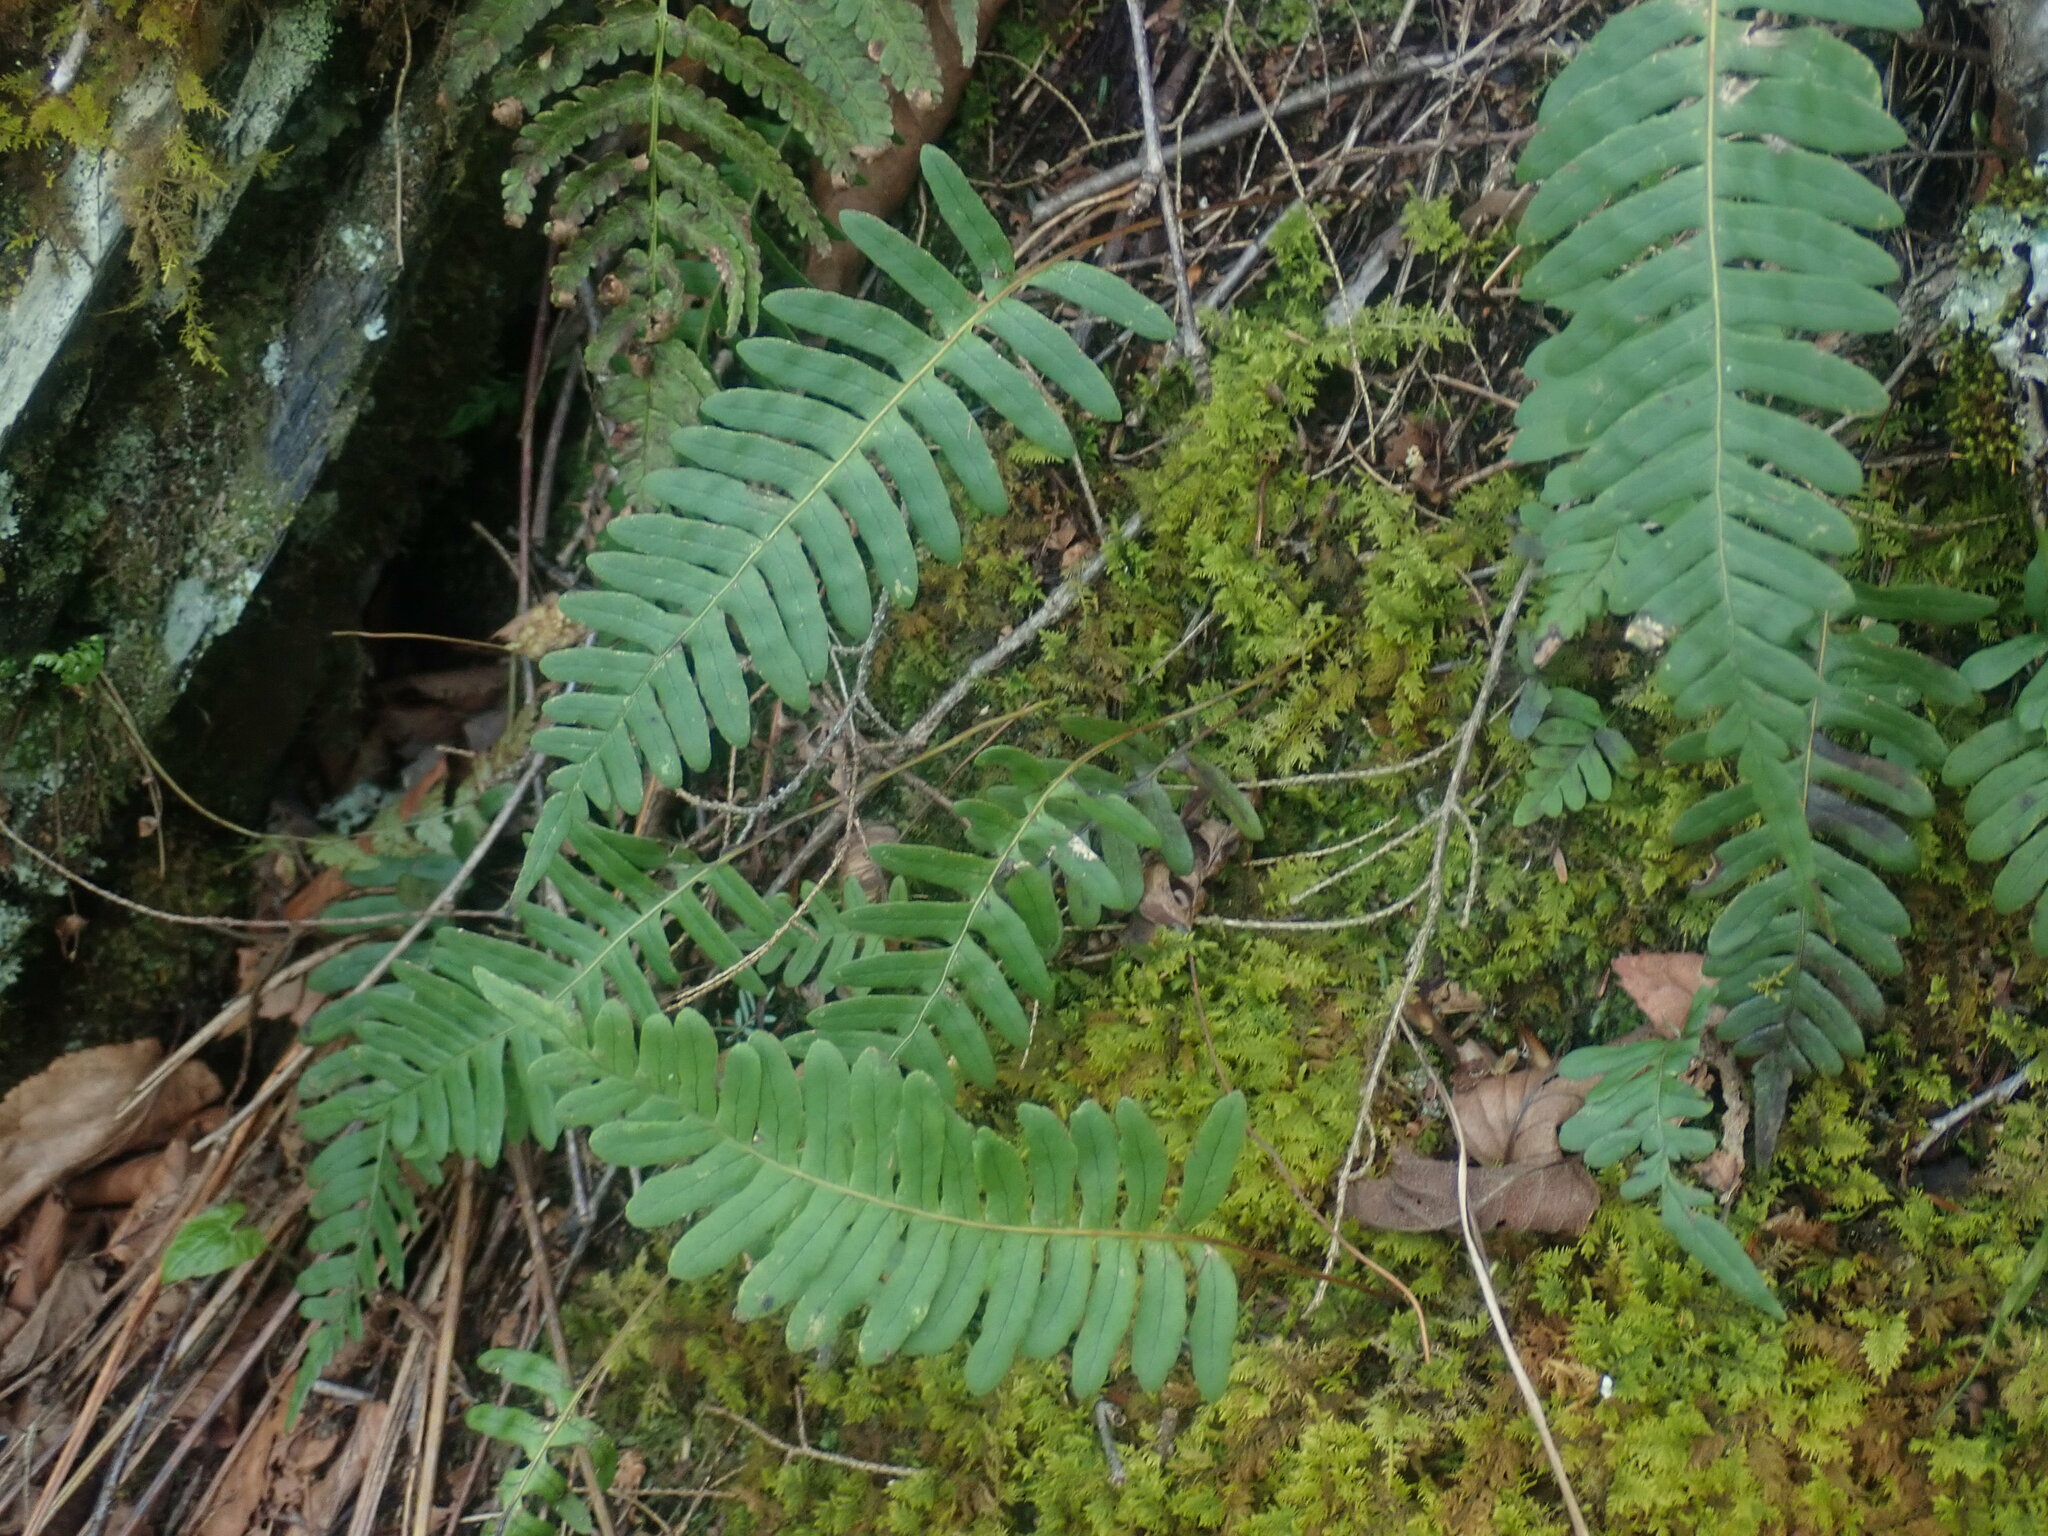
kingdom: Plantae
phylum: Tracheophyta
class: Polypodiopsida
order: Polypodiales
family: Polypodiaceae
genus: Polypodium
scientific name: Polypodium
